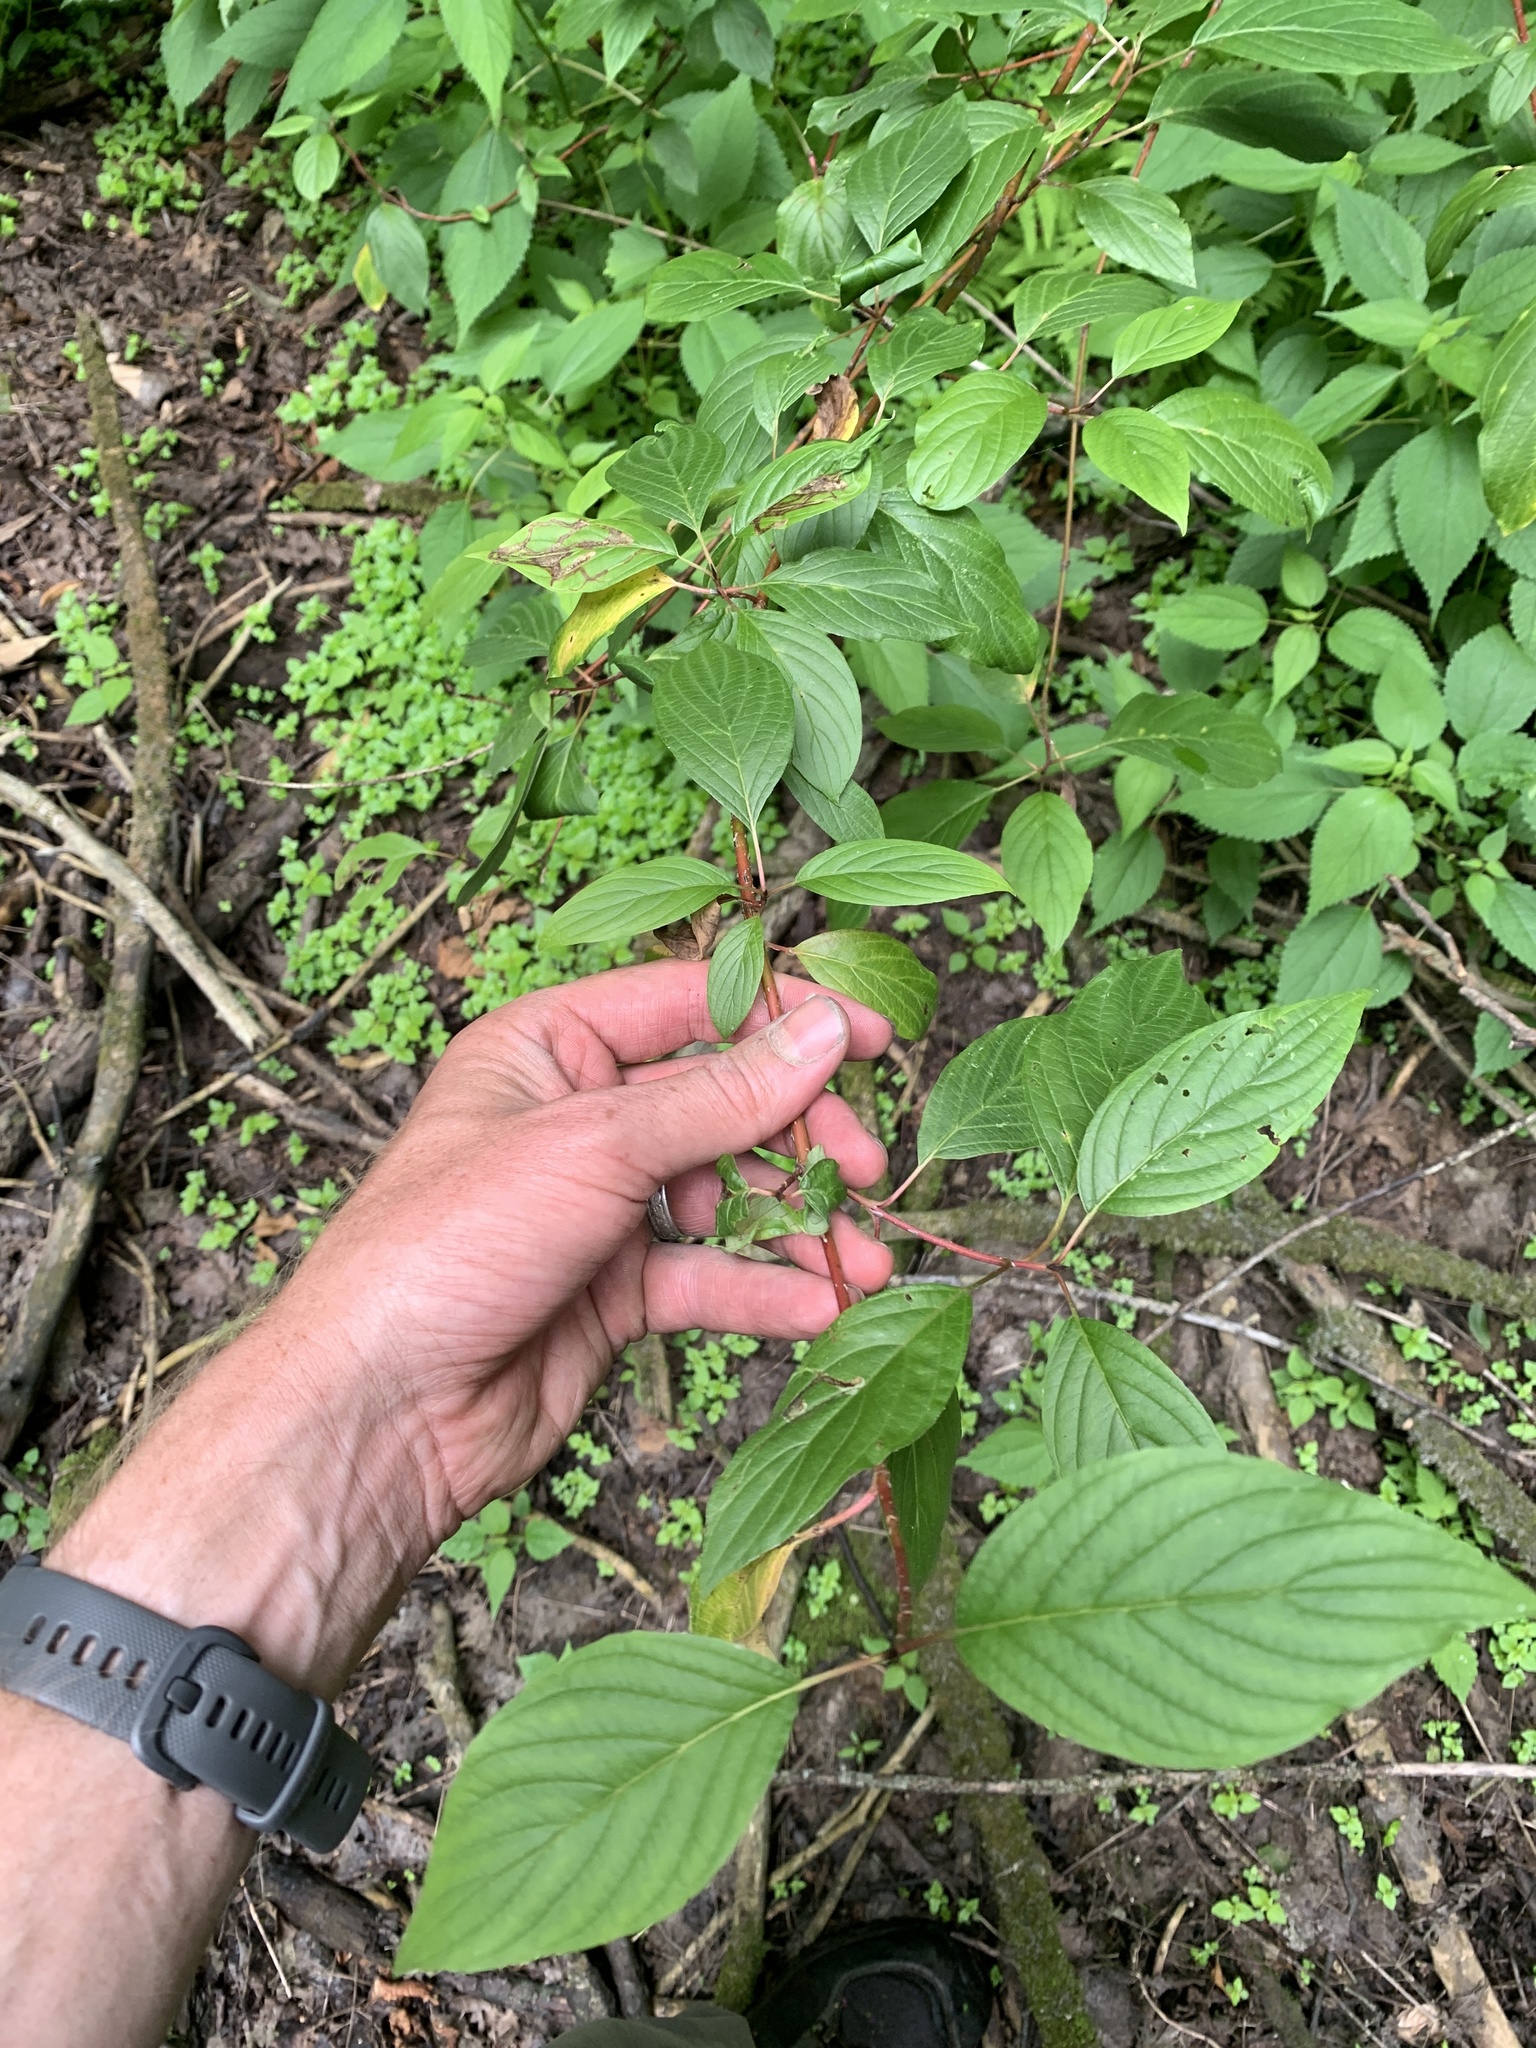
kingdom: Plantae
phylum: Tracheophyta
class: Magnoliopsida
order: Cornales
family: Cornaceae
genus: Cornus
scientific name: Cornus sericea
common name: Red-osier dogwood
